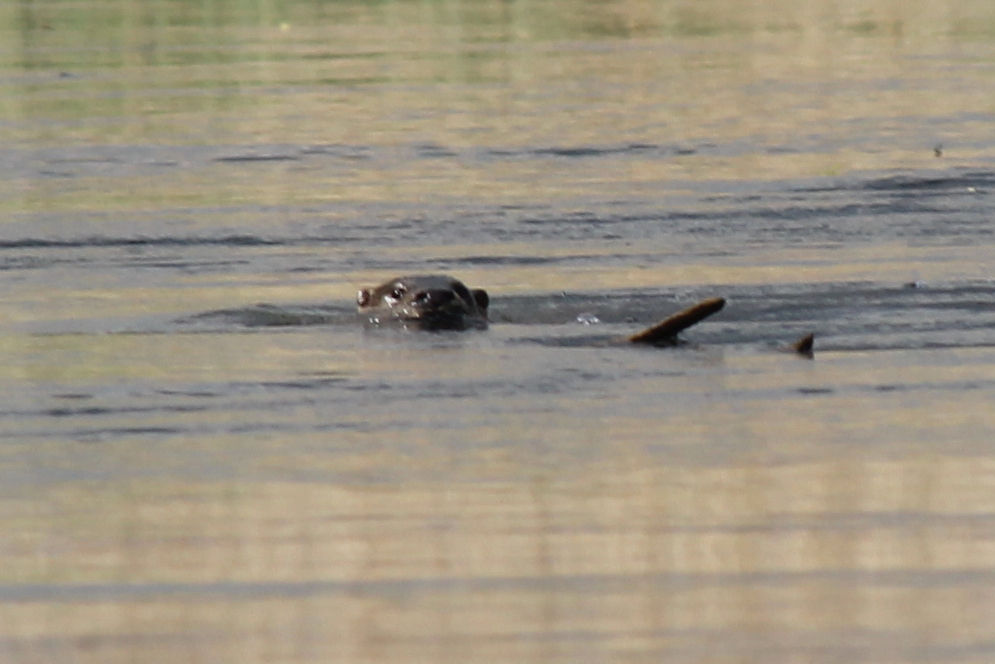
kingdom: Animalia
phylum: Chordata
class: Mammalia
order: Carnivora
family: Mustelidae
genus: Lutra
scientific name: Lutra lutra
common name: European otter
